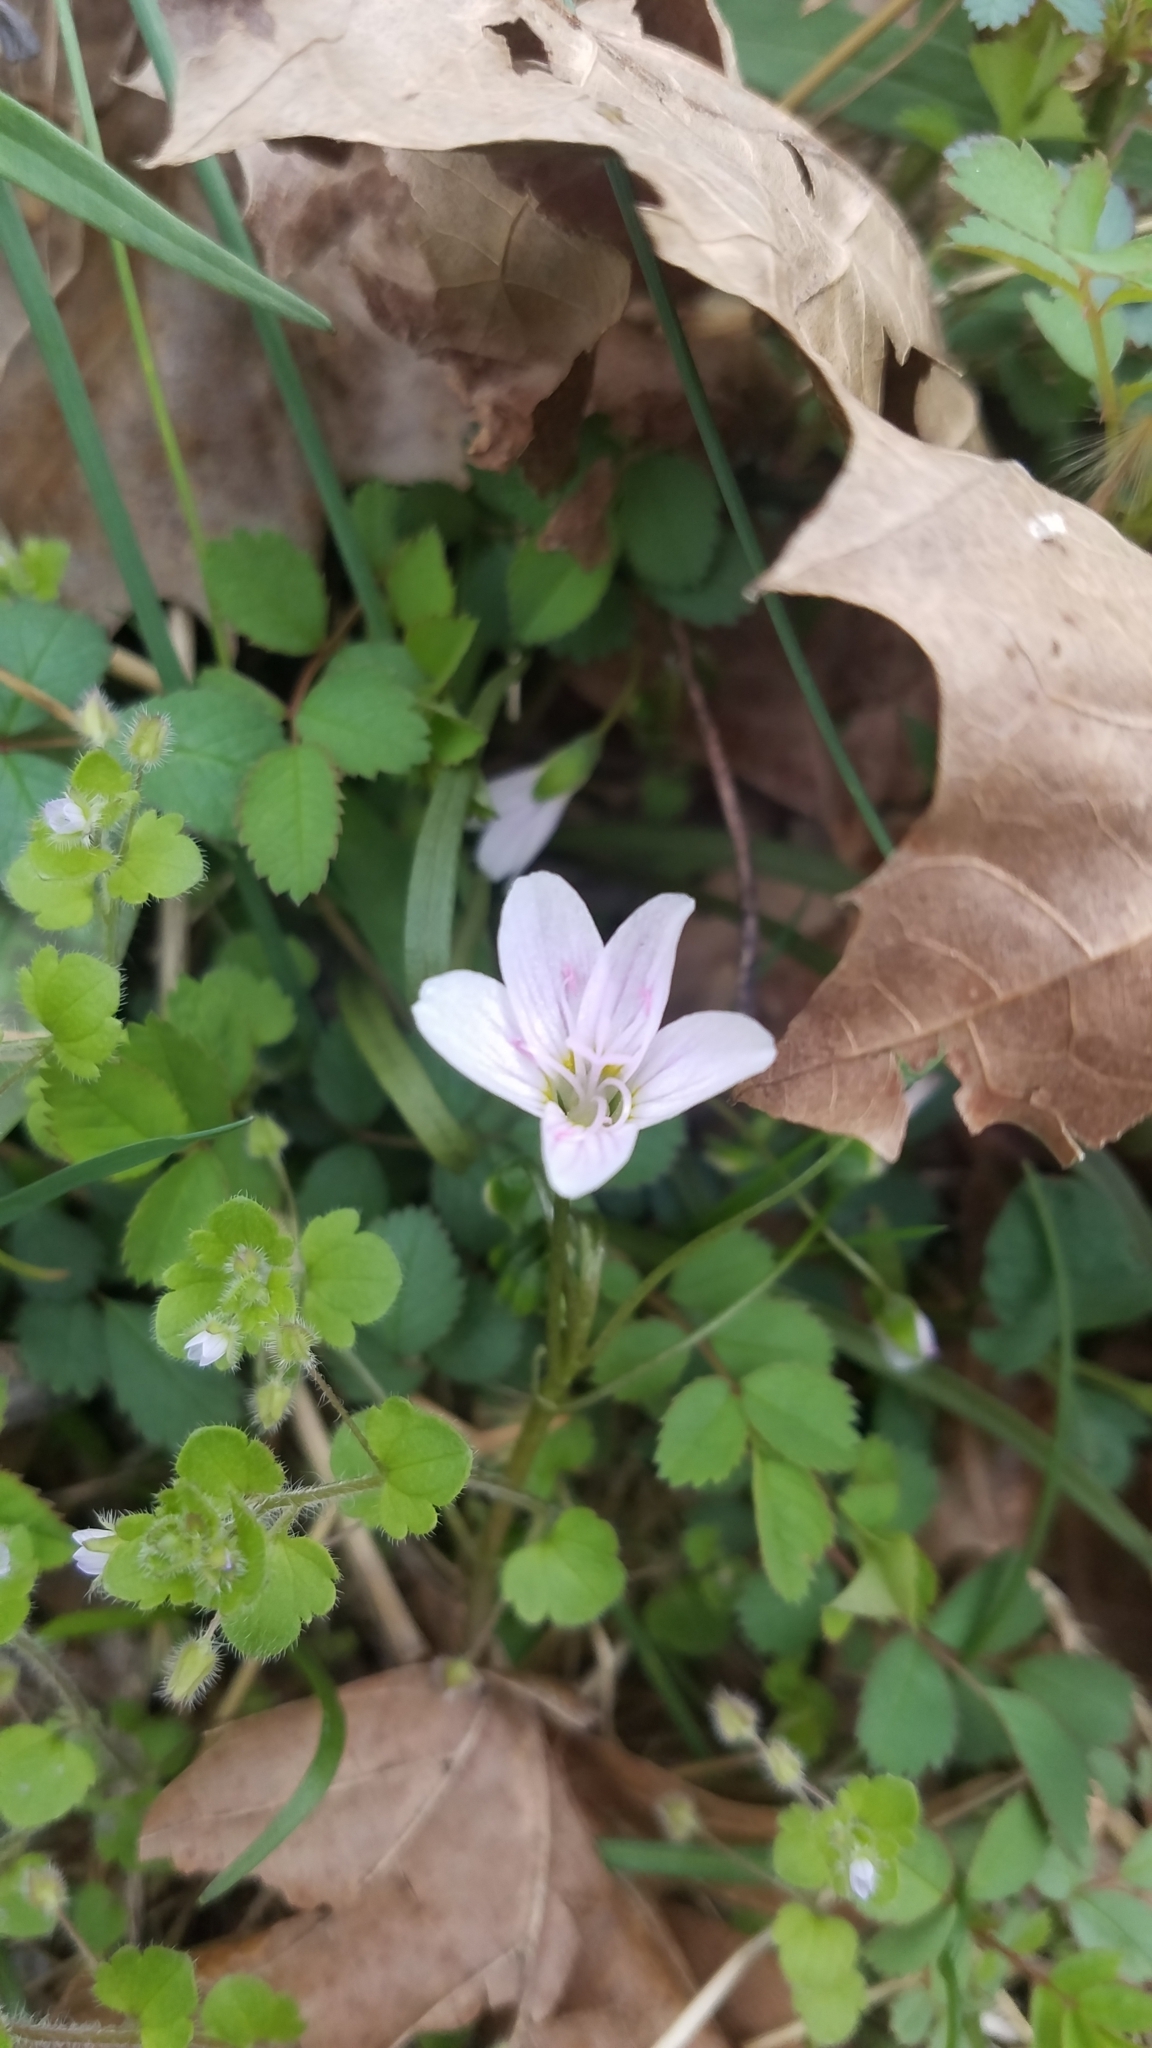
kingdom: Plantae
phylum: Tracheophyta
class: Magnoliopsida
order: Caryophyllales
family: Montiaceae
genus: Claytonia
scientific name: Claytonia virginica
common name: Virginia springbeauty
